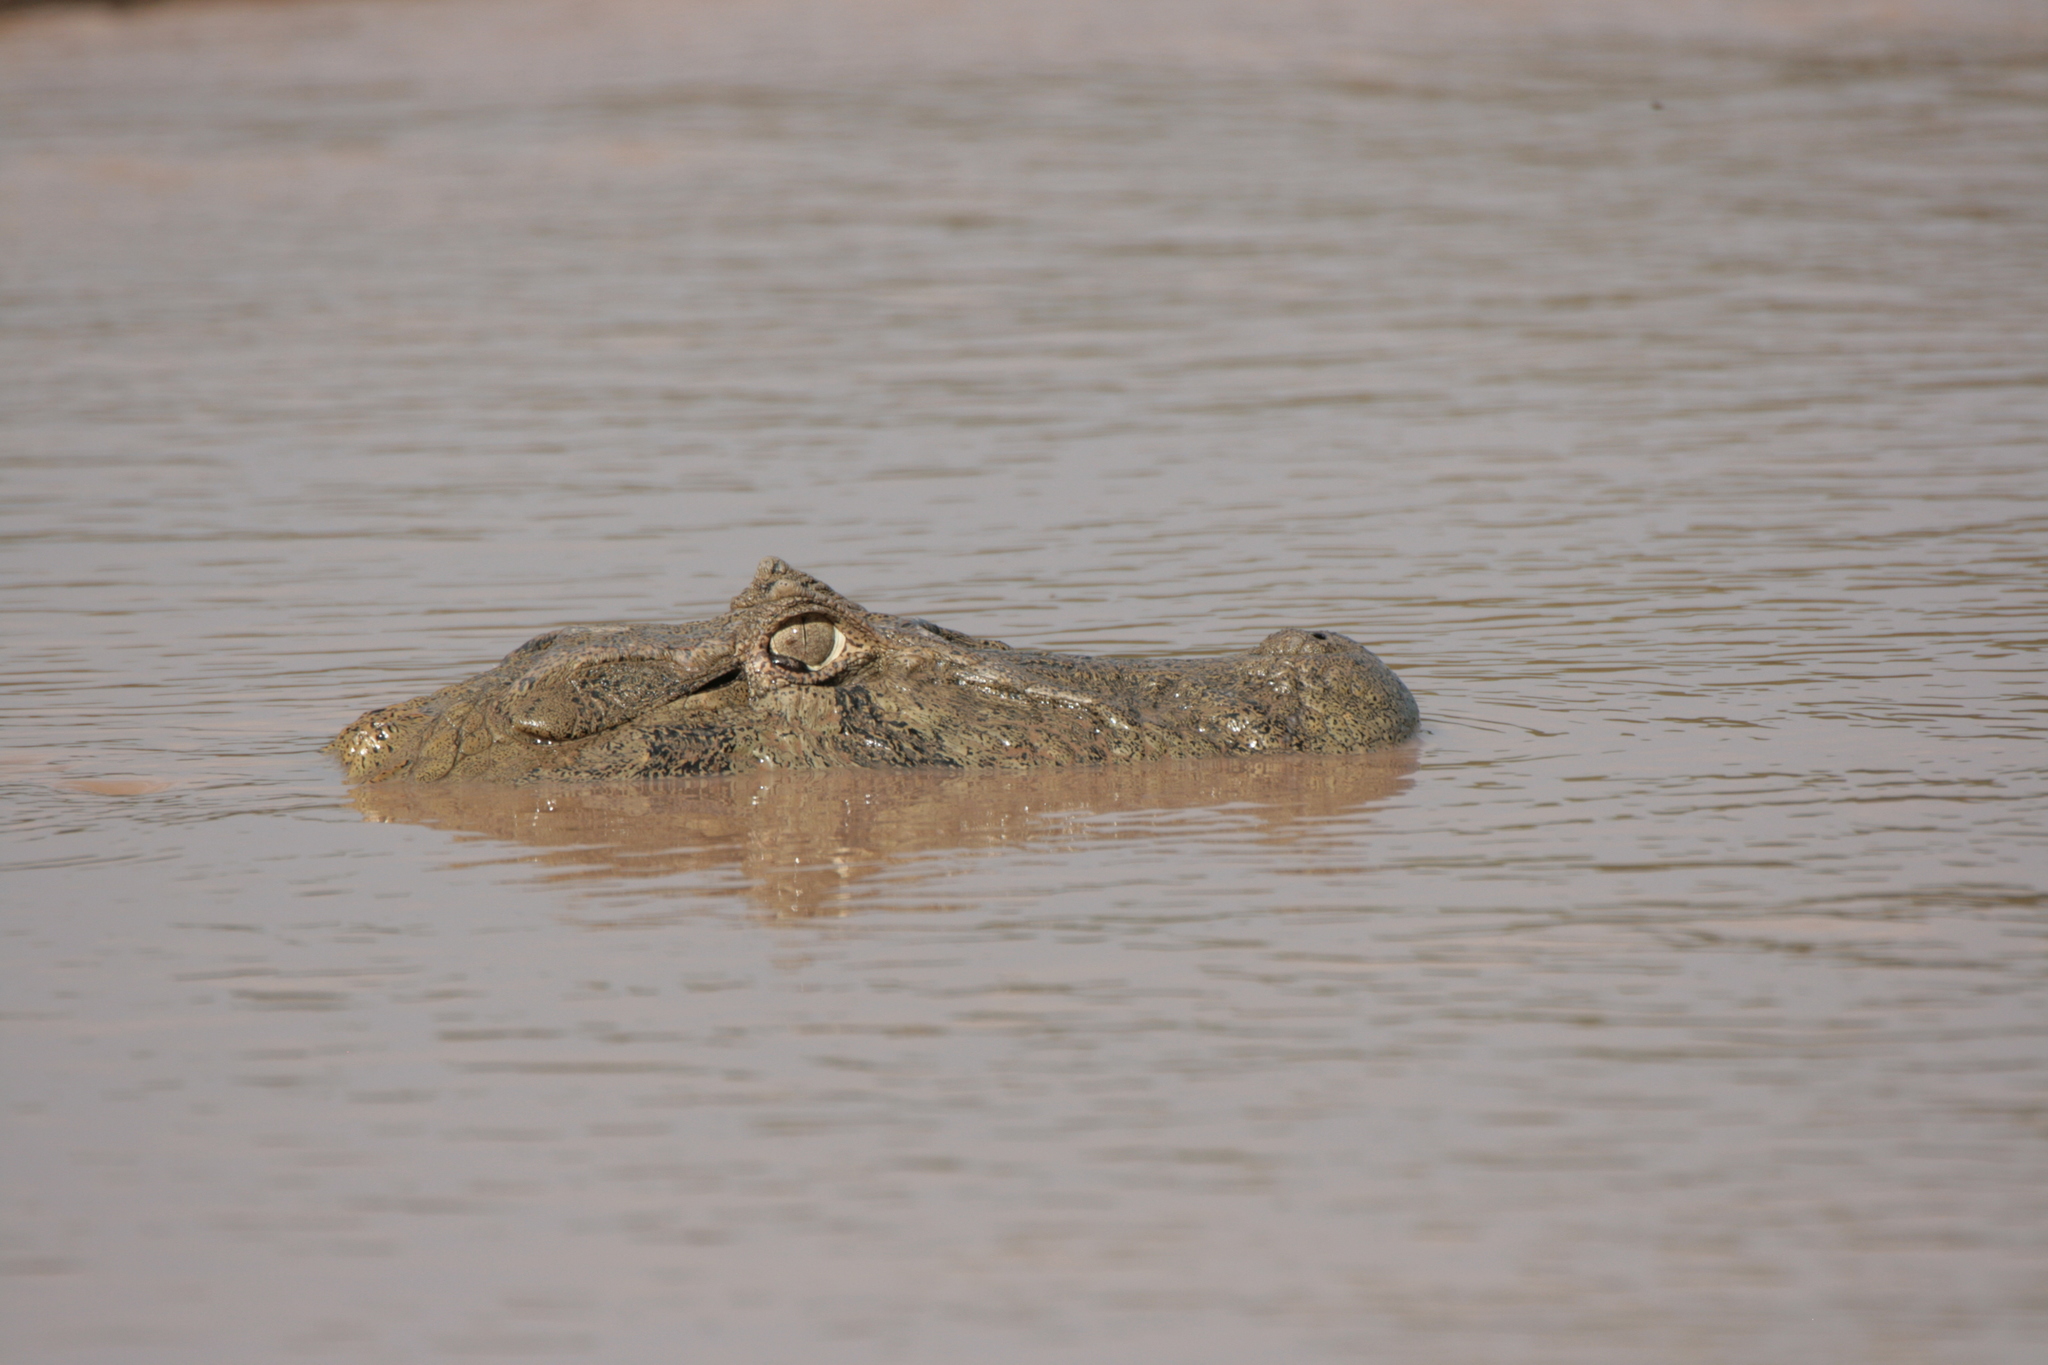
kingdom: Animalia
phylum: Chordata
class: Crocodylia
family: Alligatoridae
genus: Caiman
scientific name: Caiman latirostris
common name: Broad-snouted caiman
